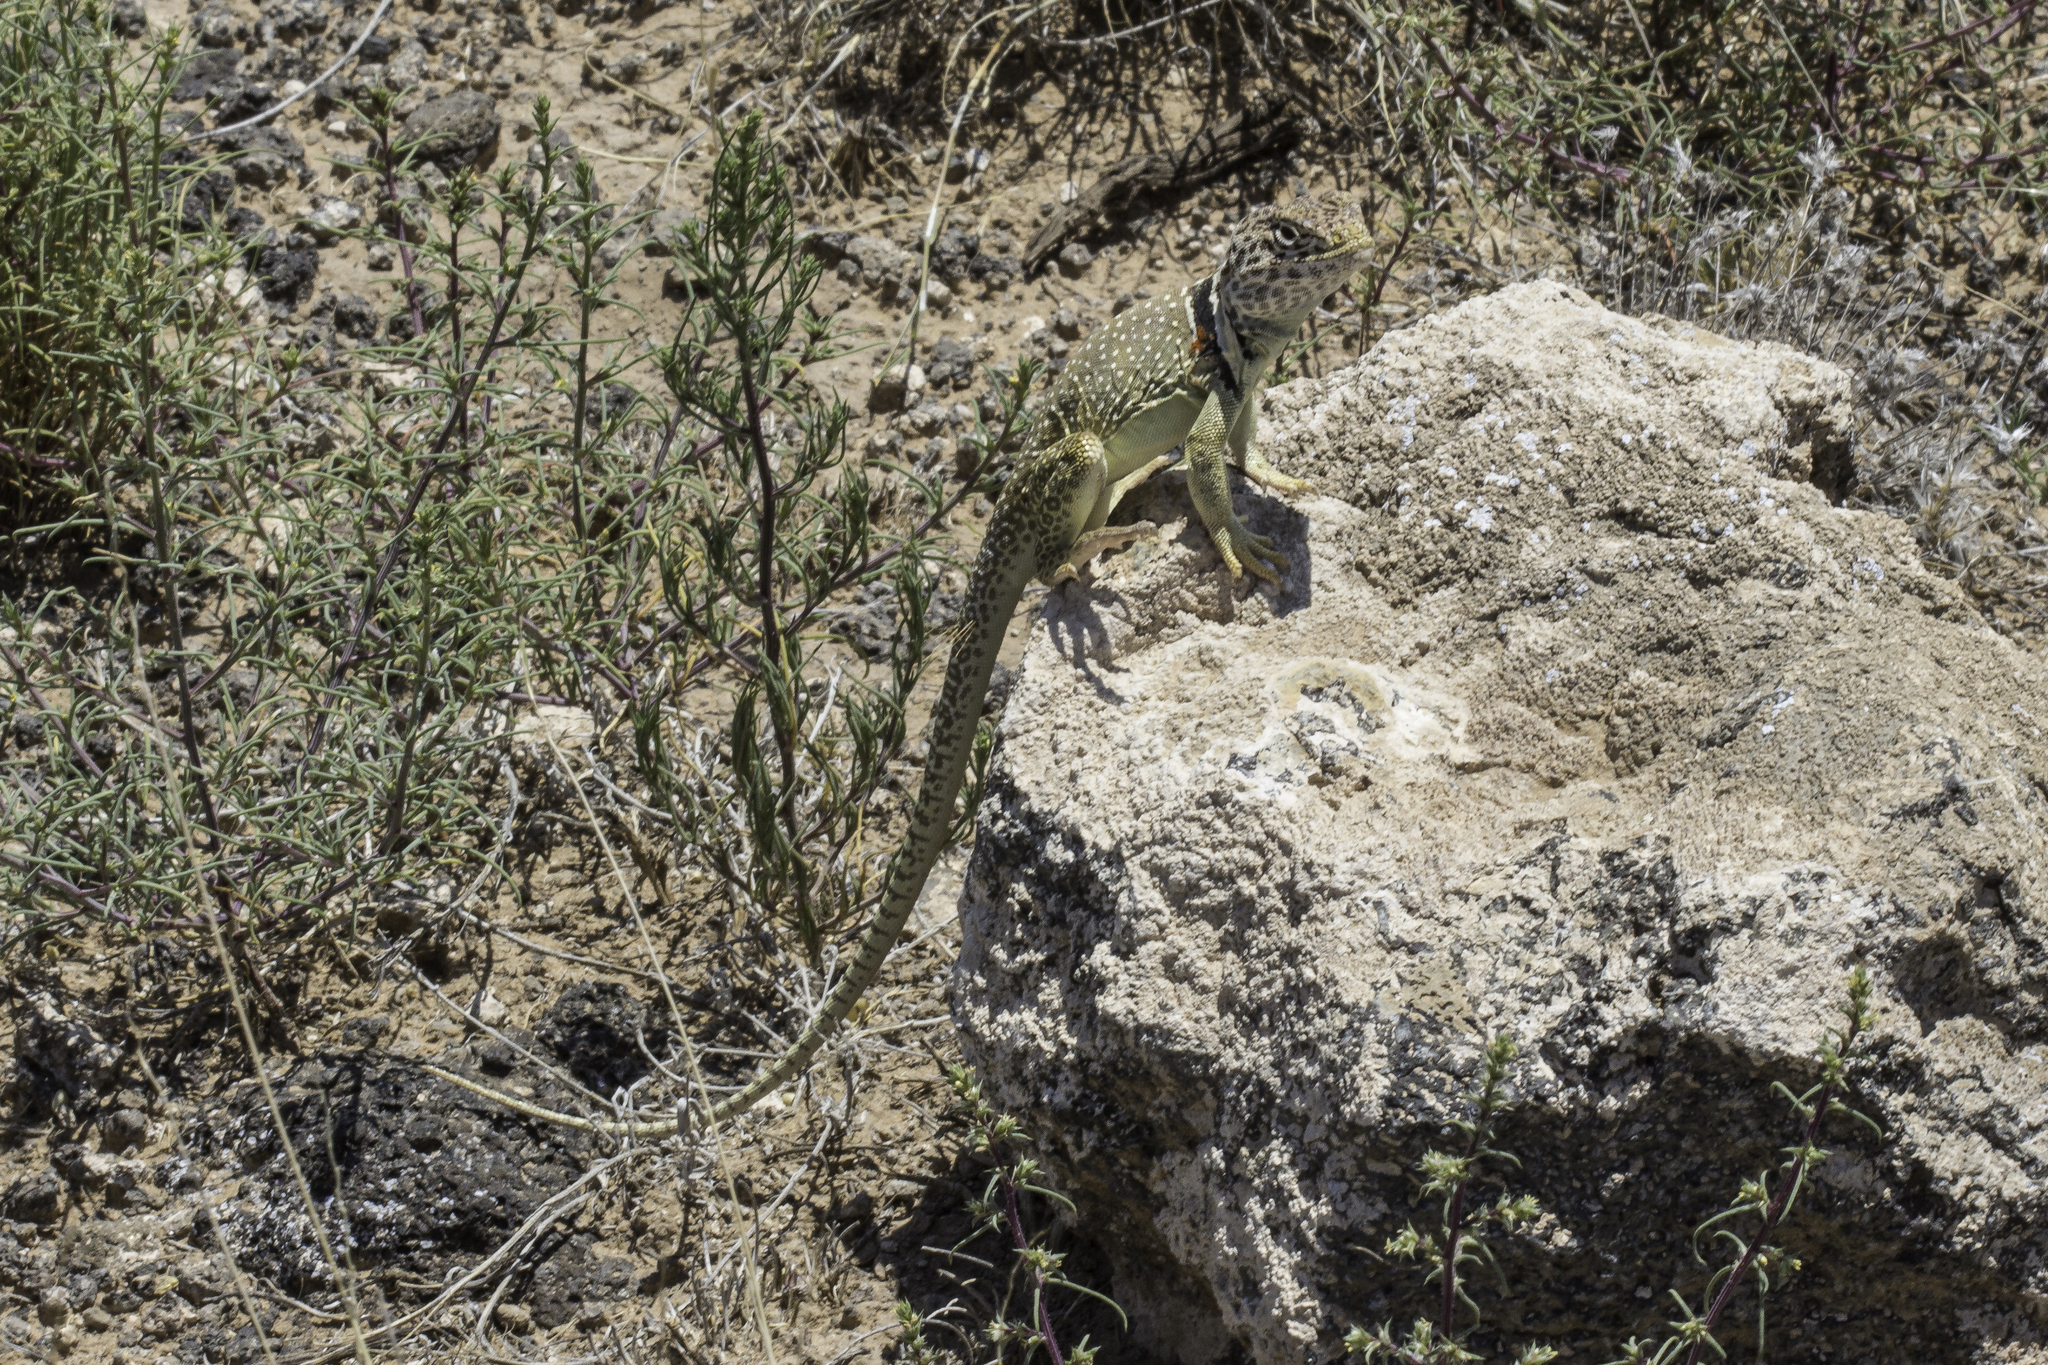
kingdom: Animalia
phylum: Chordata
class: Squamata
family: Crotaphytidae
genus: Crotaphytus
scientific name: Crotaphytus collaris
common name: Collared lizard
